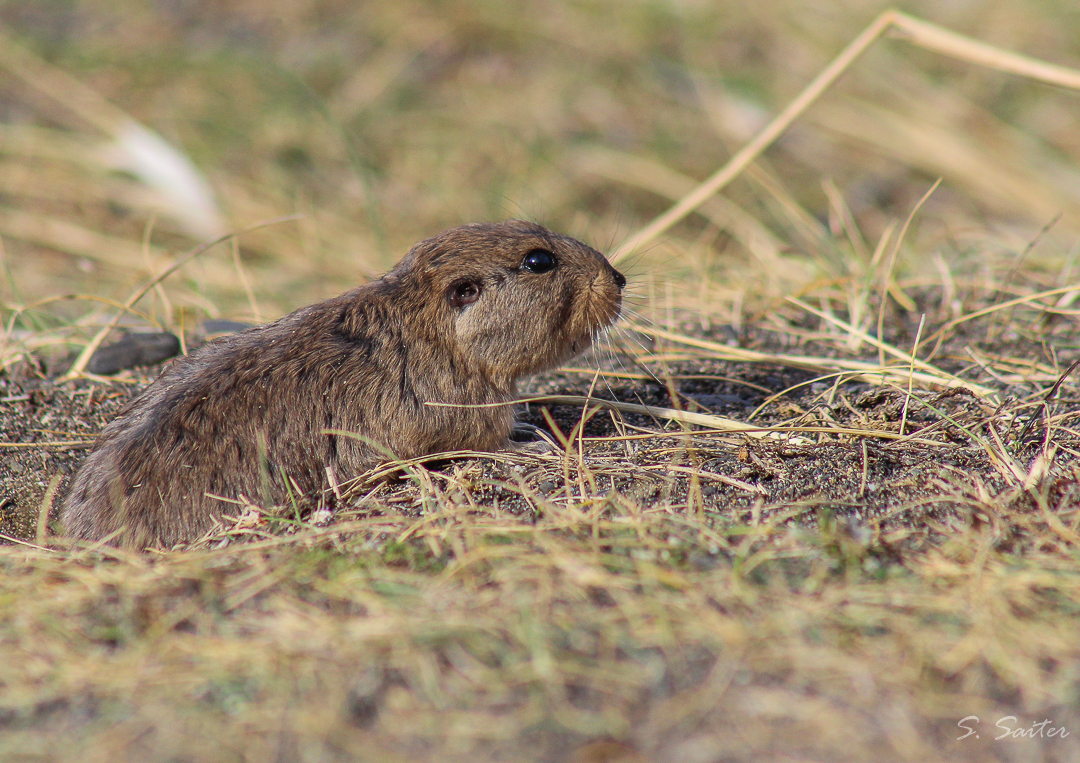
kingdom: Animalia
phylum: Chordata
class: Mammalia
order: Rodentia
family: Ctenomyidae
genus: Ctenomys
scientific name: Ctenomys magellanicus
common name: Magellanic tuco-tuco
